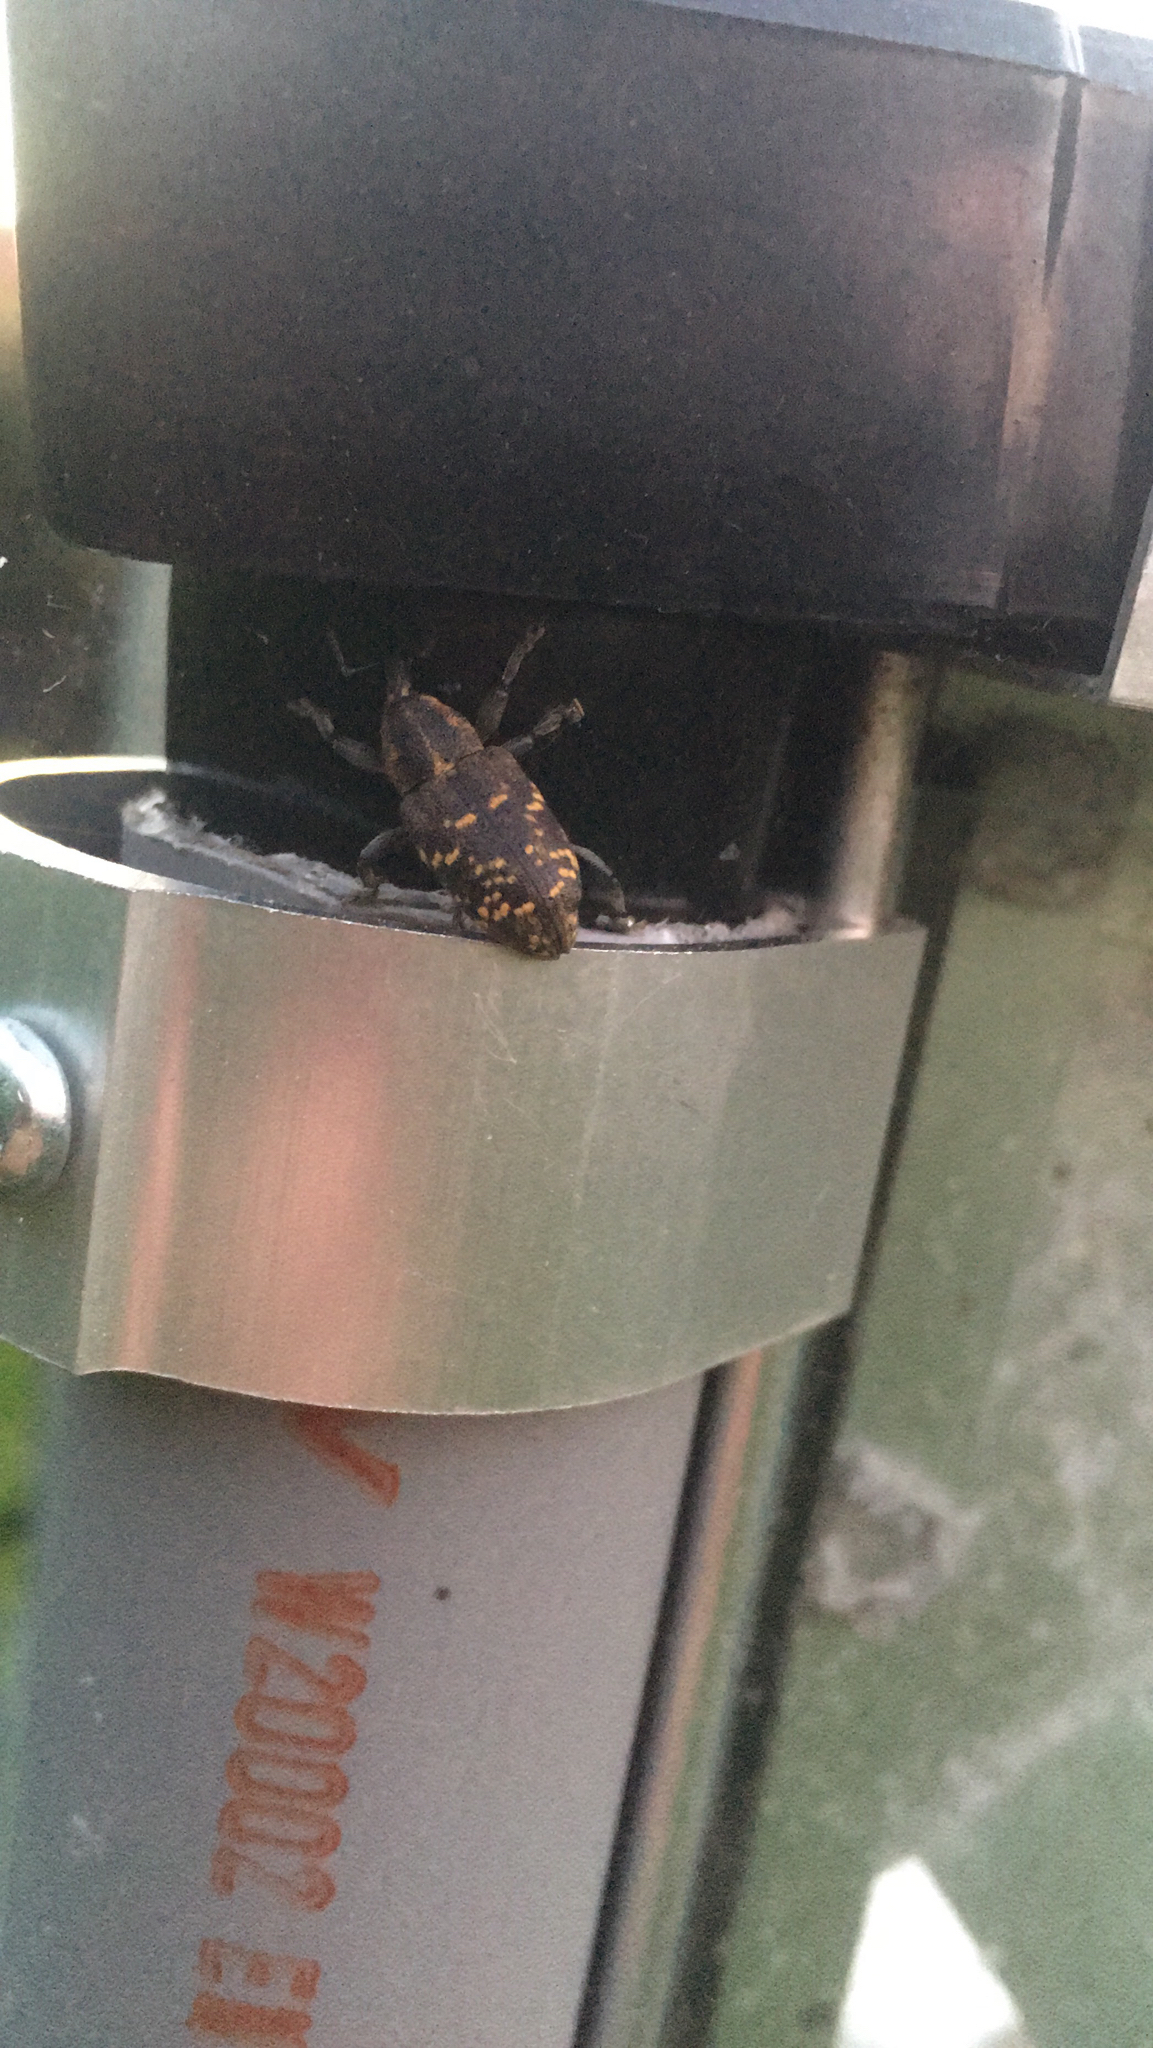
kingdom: Animalia
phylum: Arthropoda
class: Insecta
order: Coleoptera
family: Curculionidae
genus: Hylobius
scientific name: Hylobius abietis
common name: Large pine weevil
